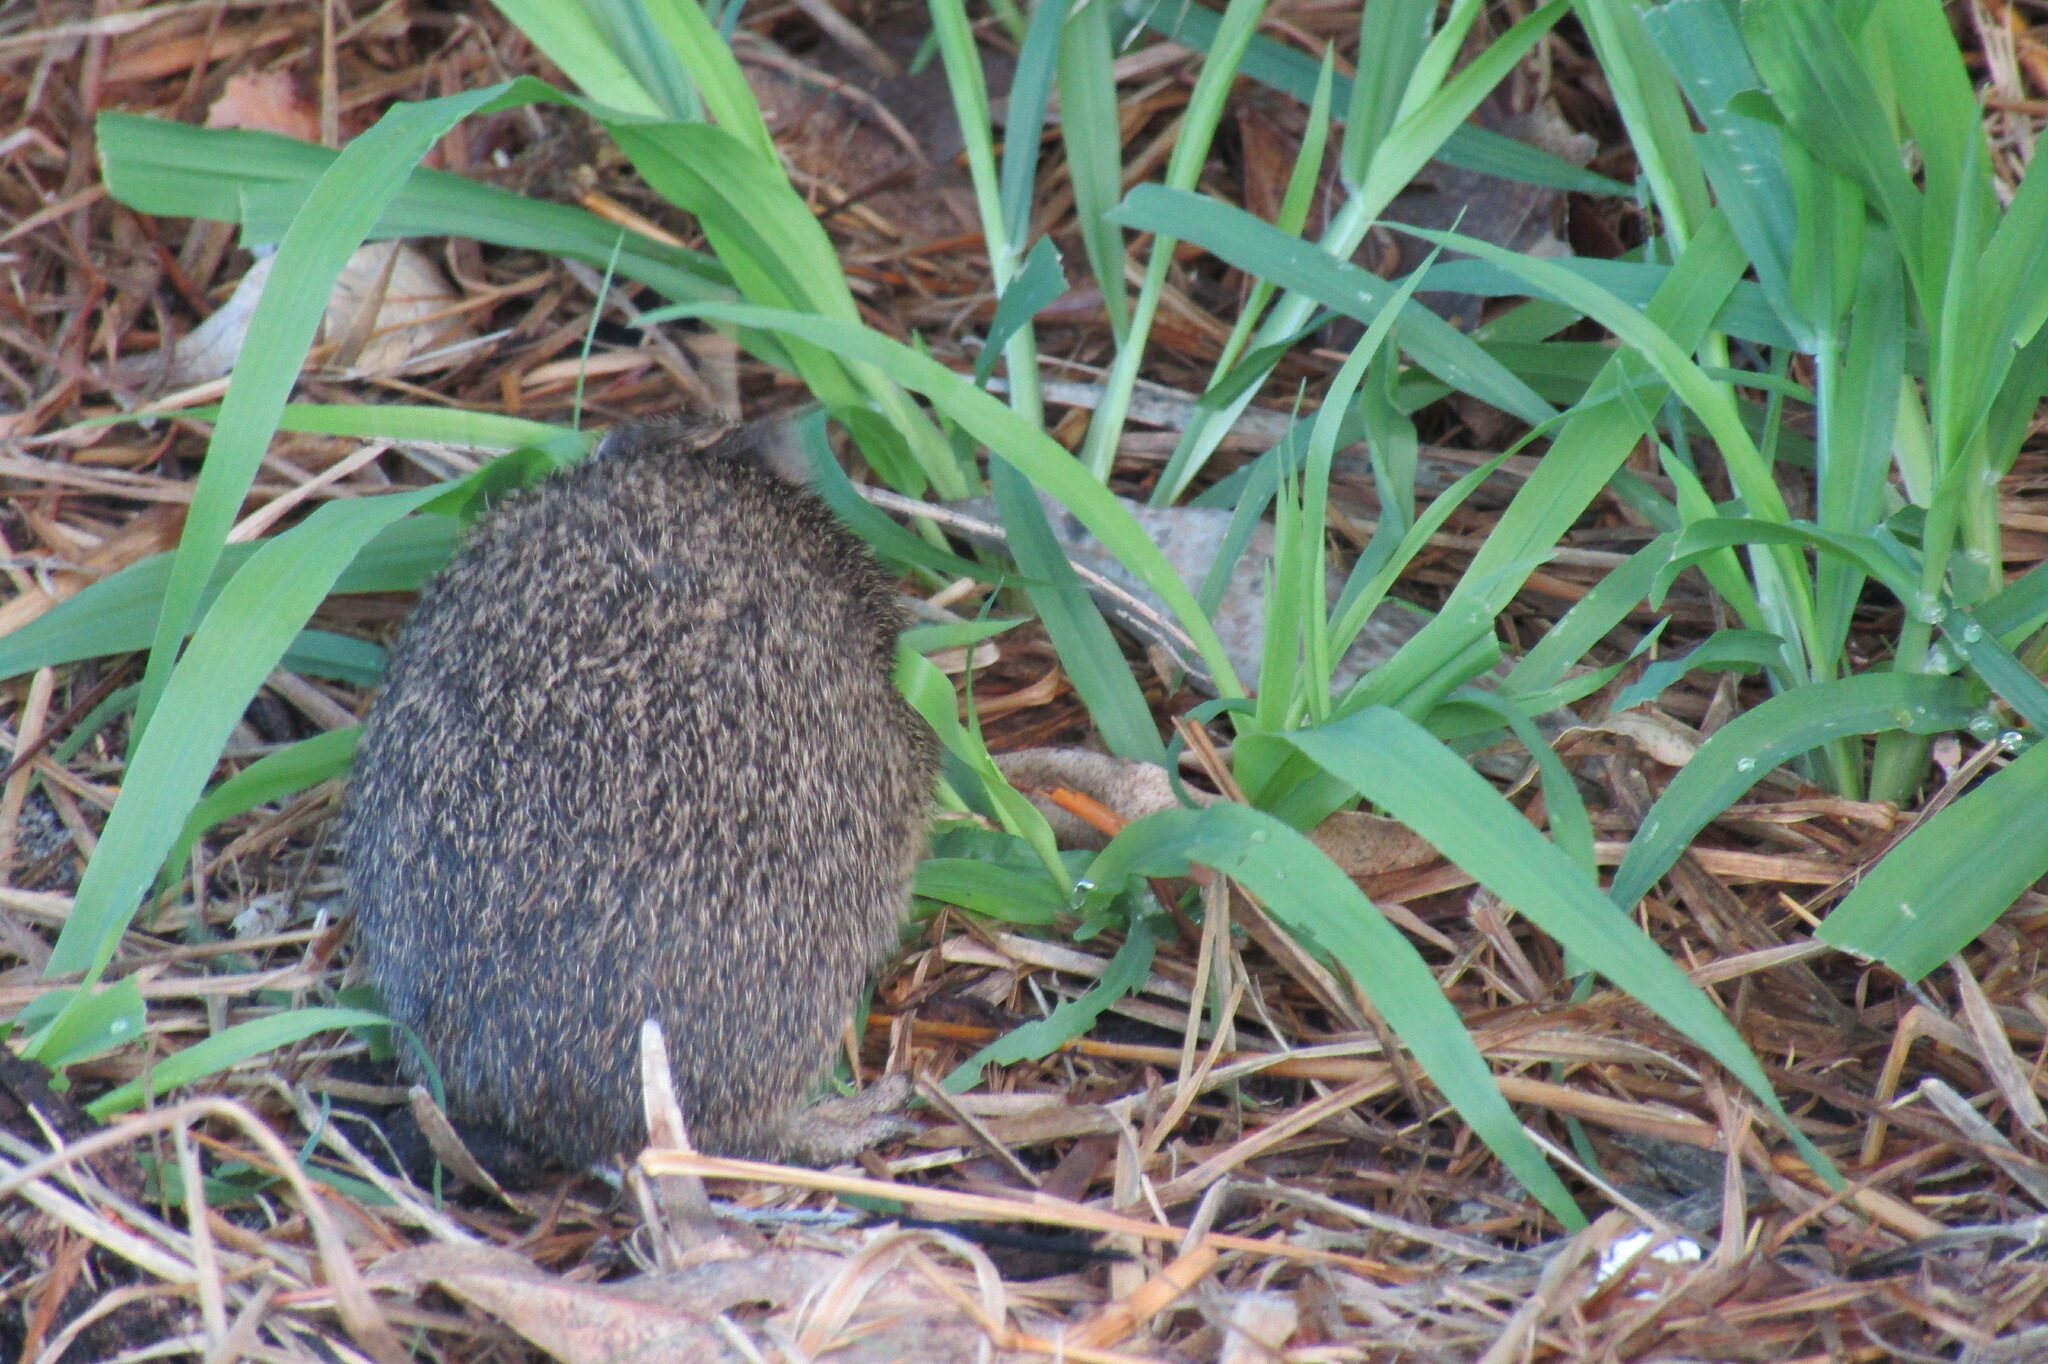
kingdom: Animalia
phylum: Chordata
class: Mammalia
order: Peramelemorphia
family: Peramelidae
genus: Isoodon
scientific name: Isoodon fusciventer
